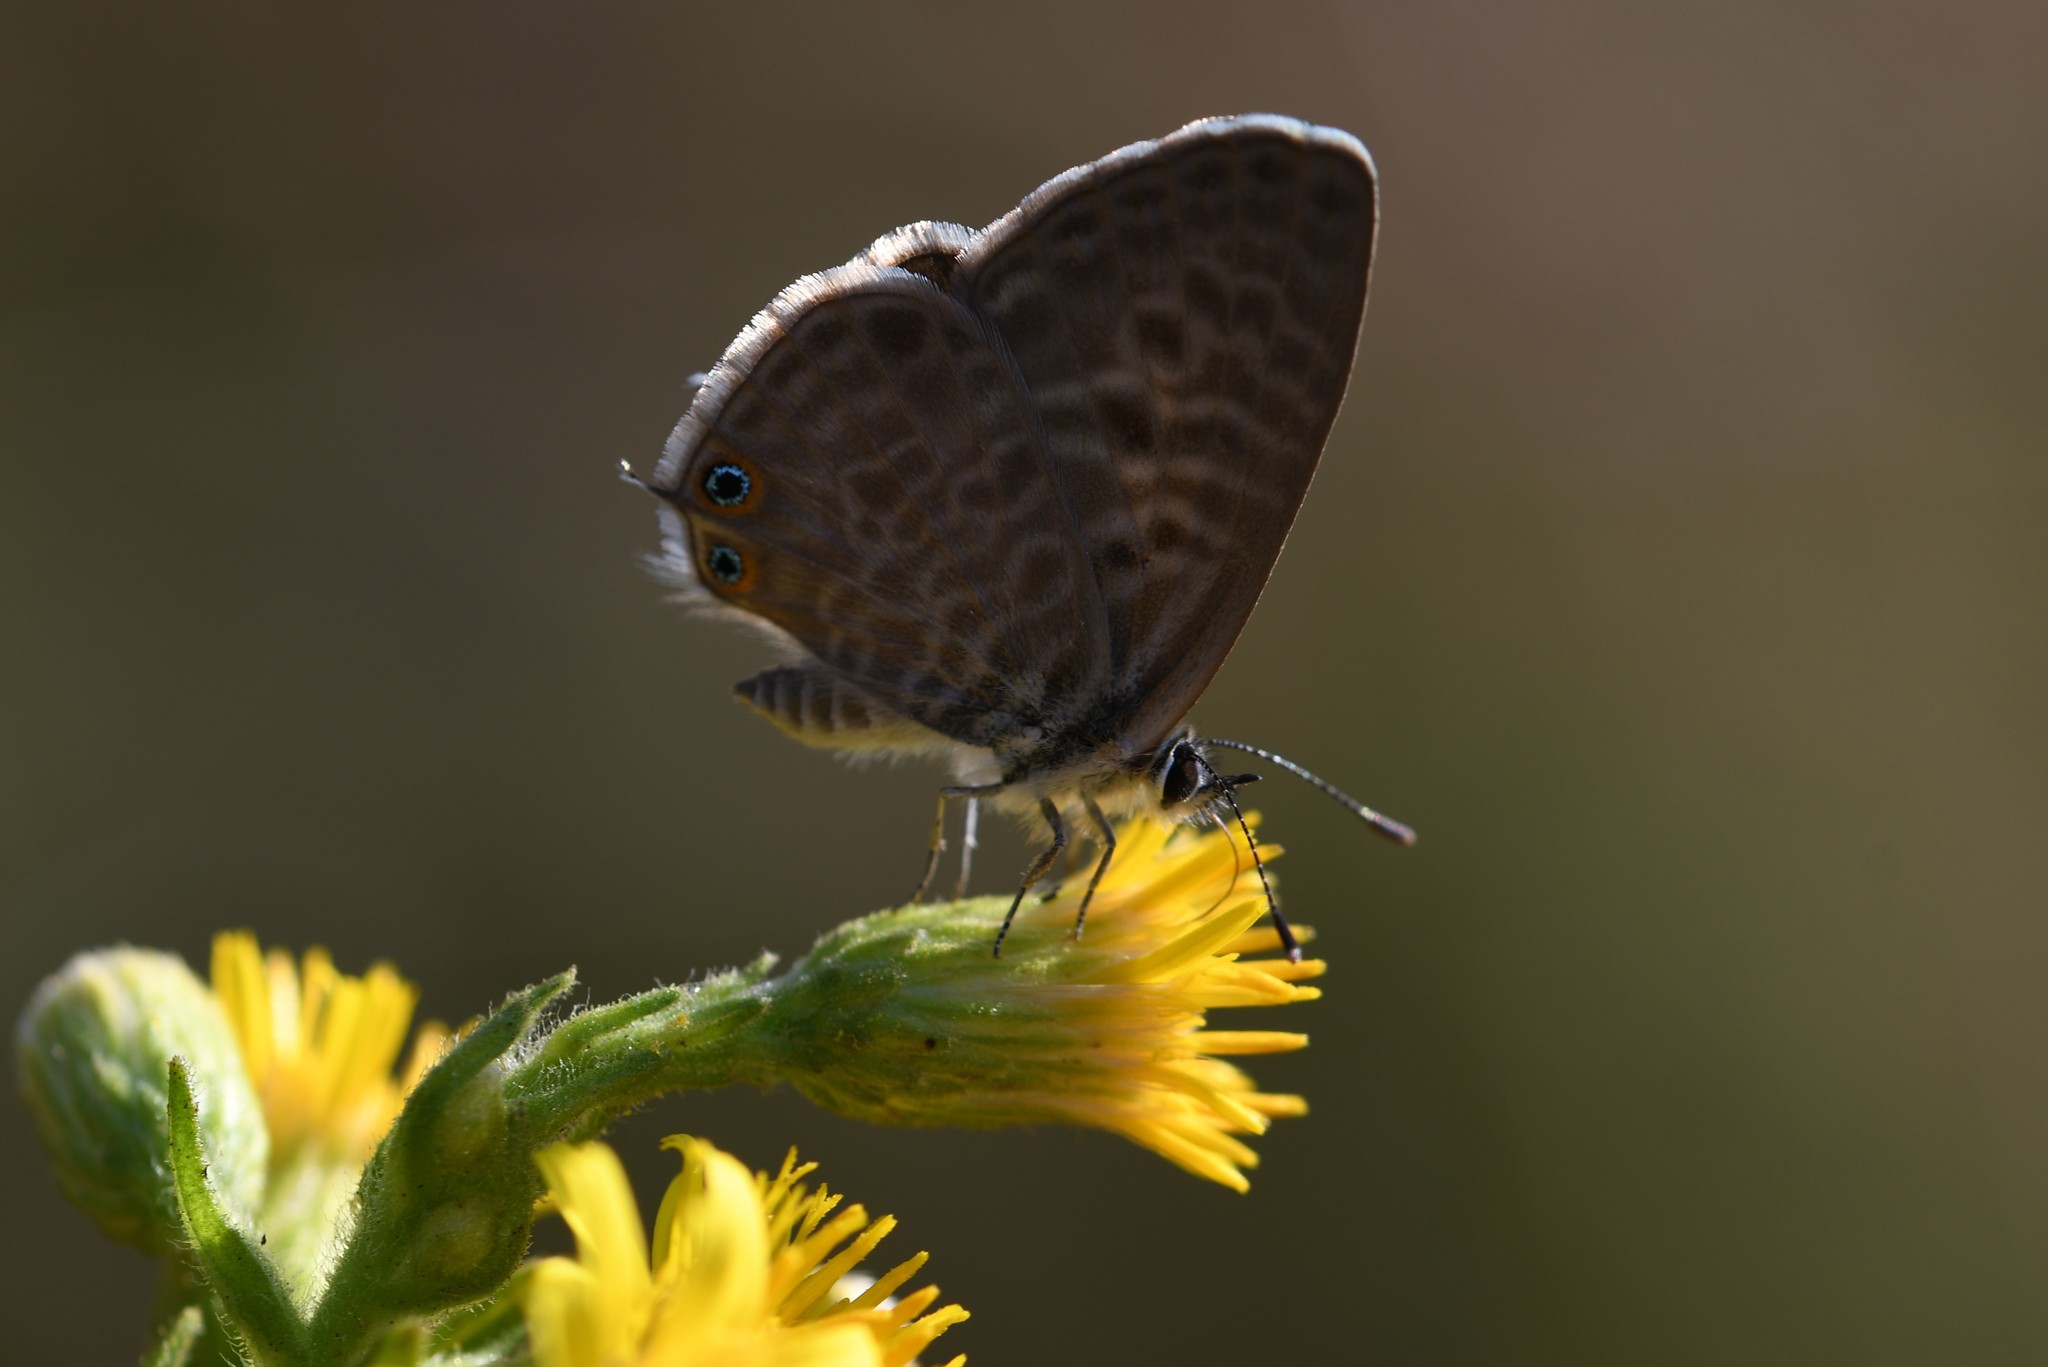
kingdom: Animalia
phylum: Arthropoda
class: Insecta
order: Lepidoptera
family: Lycaenidae
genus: Leptotes
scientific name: Leptotes pirithous
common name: Lang's short-tailed blue
